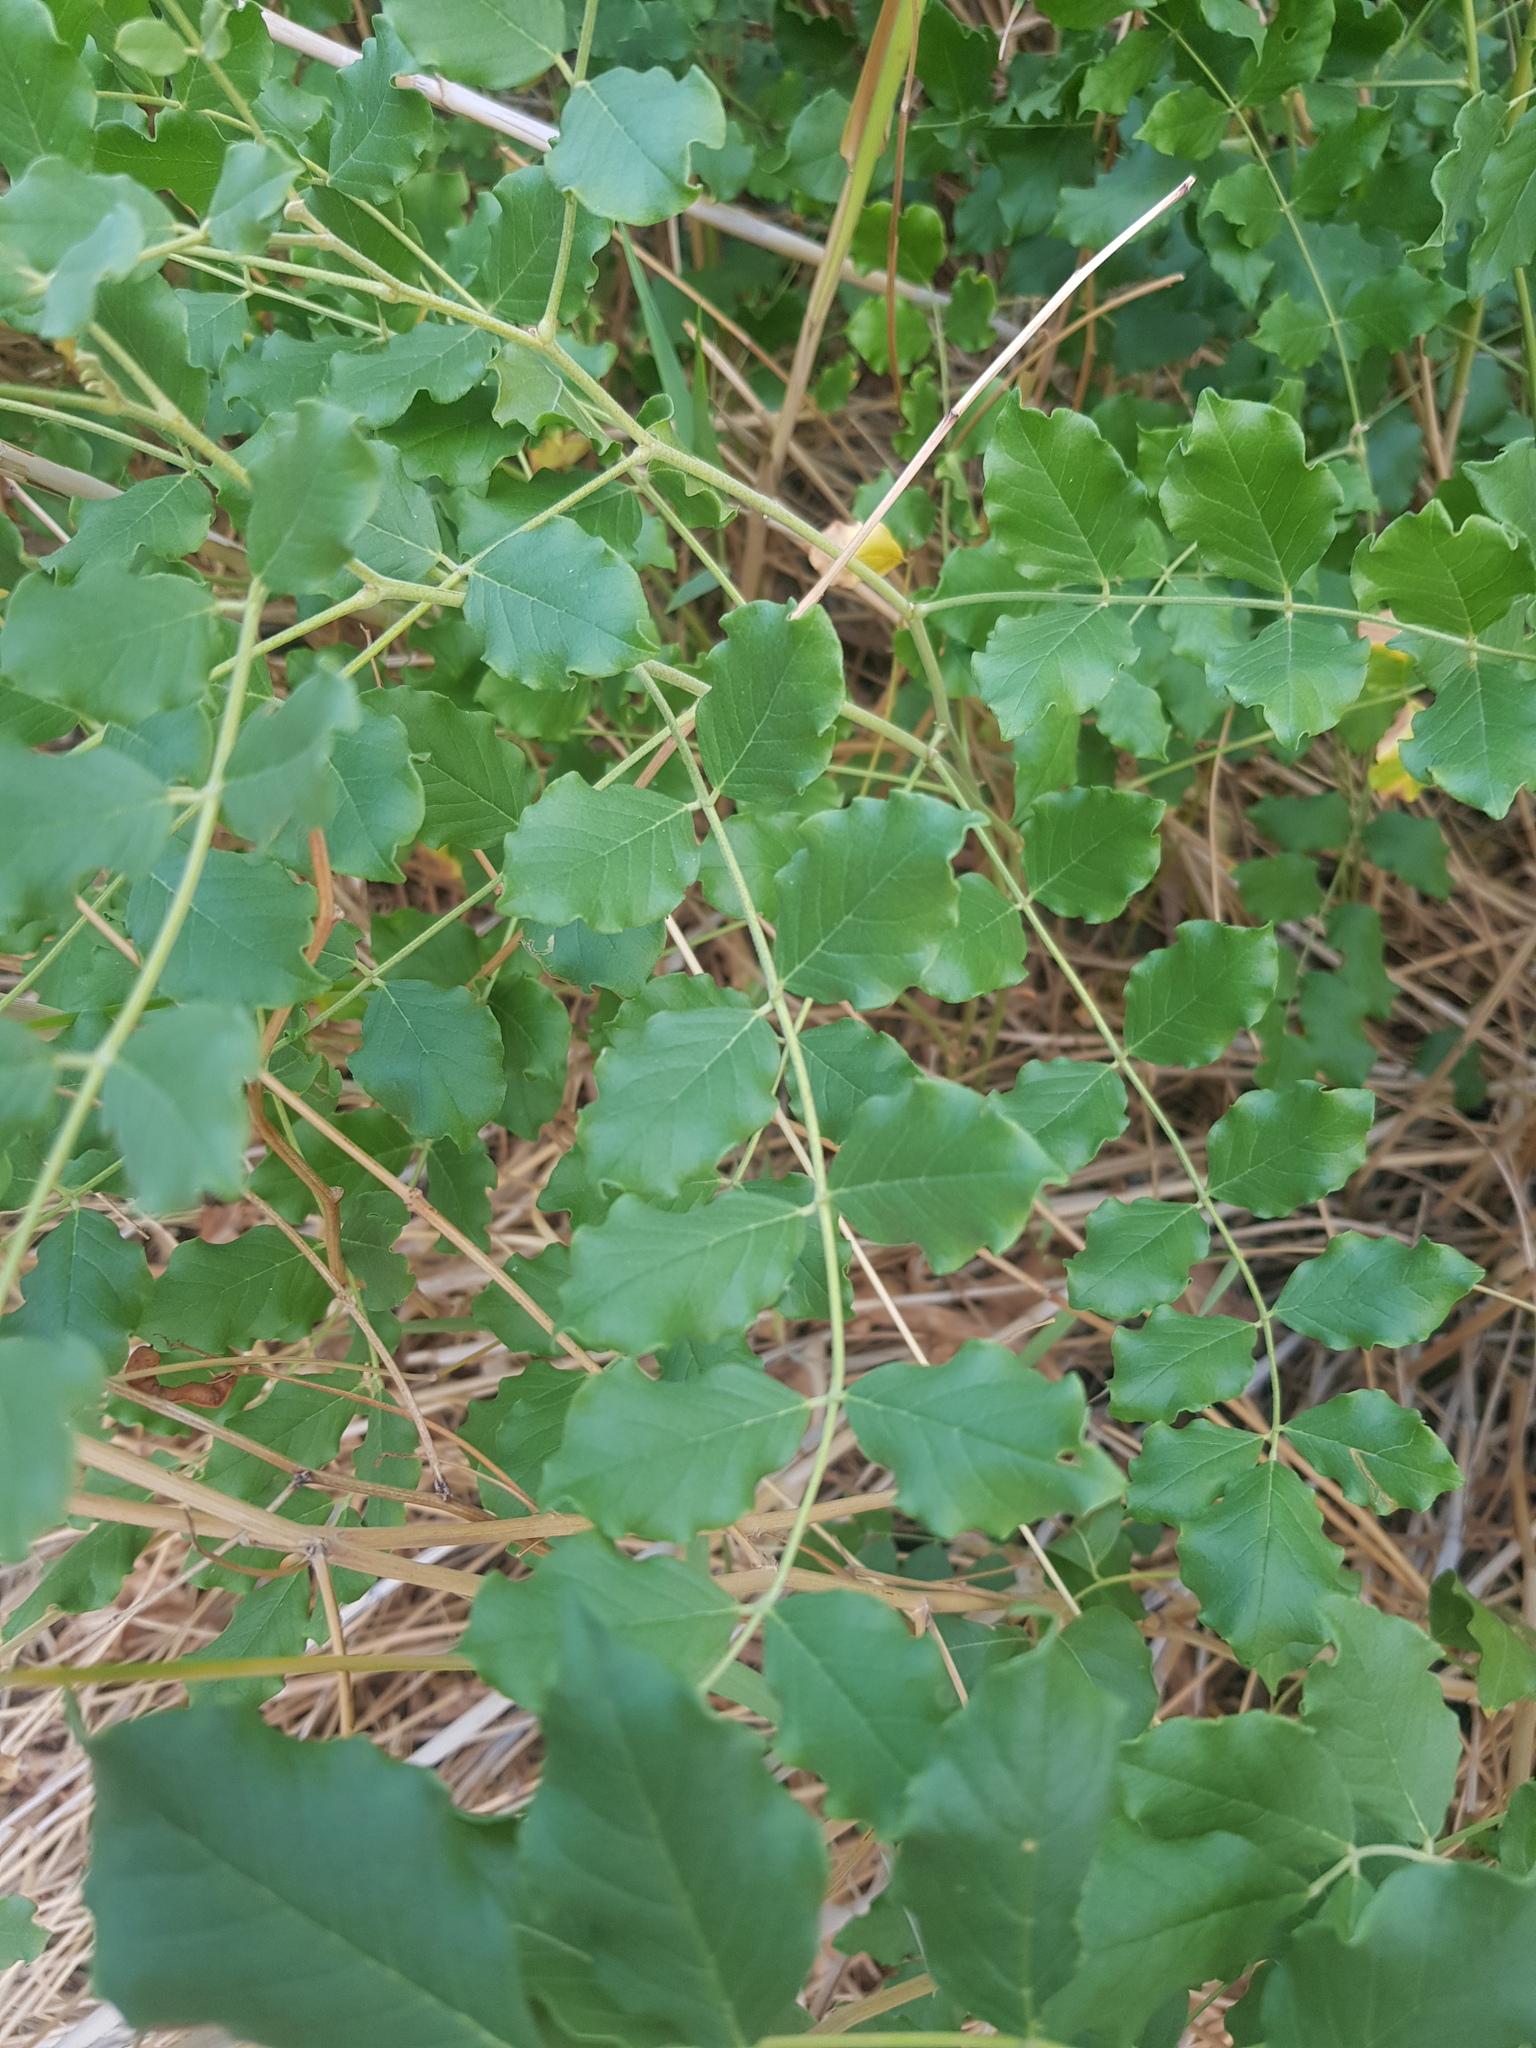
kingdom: Plantae
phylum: Tracheophyta
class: Magnoliopsida
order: Fabales
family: Fabaceae
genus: Glycyrrhiza
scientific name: Glycyrrhiza glabra
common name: Liquorice
